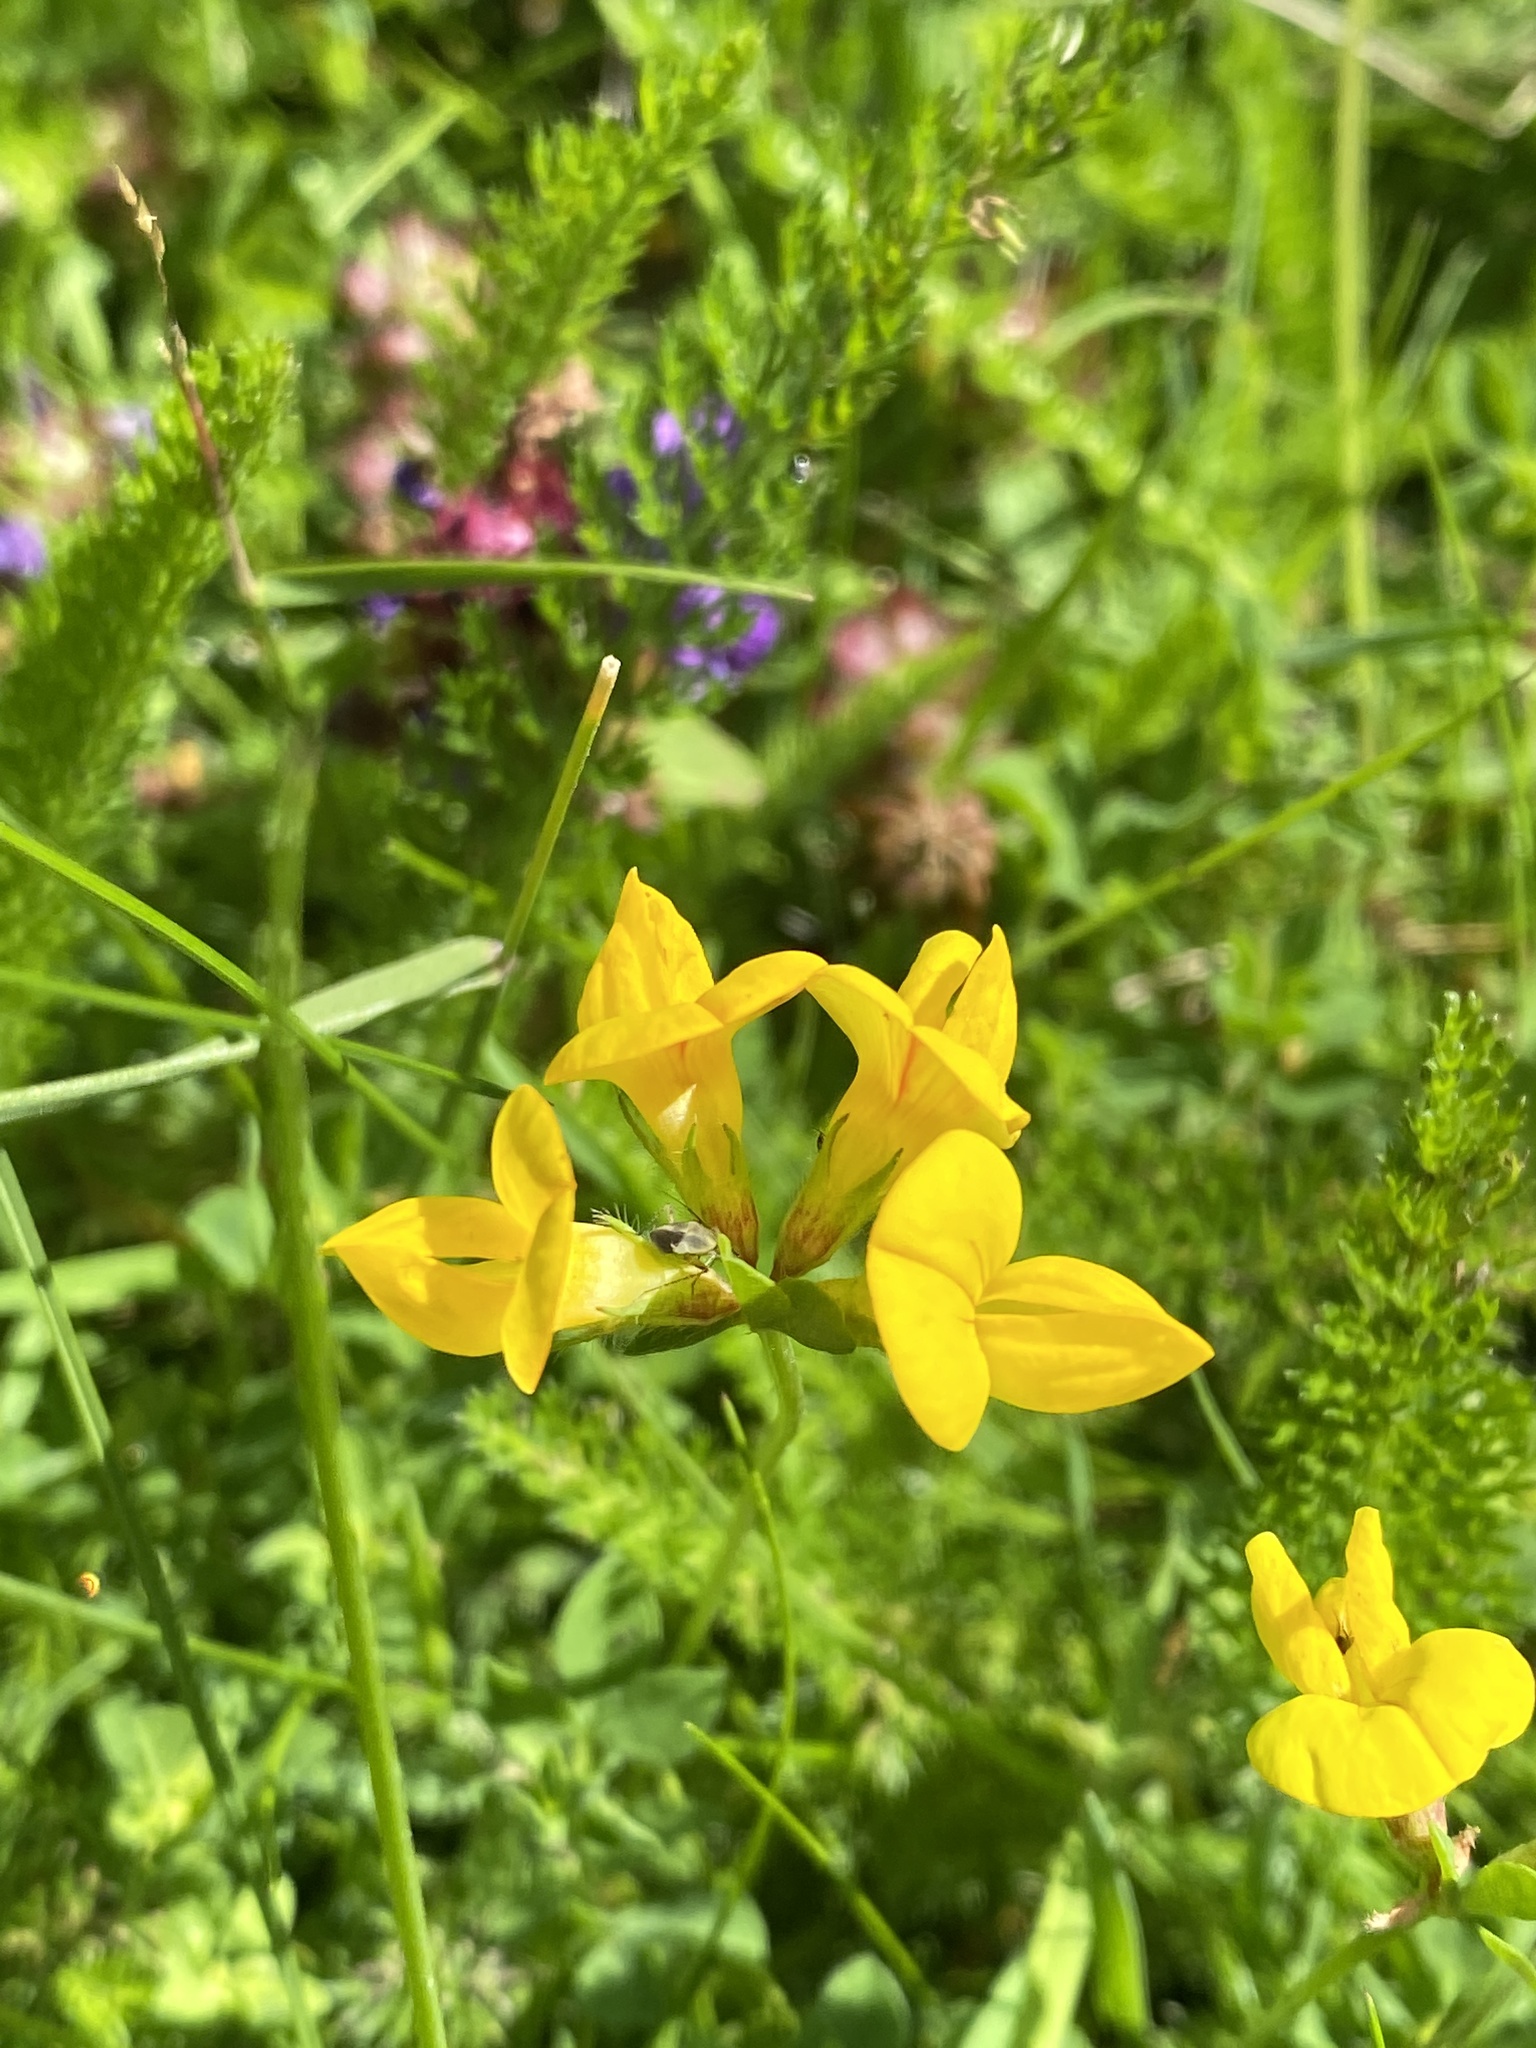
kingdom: Plantae
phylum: Tracheophyta
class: Magnoliopsida
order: Fabales
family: Fabaceae
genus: Lotus
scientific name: Lotus corniculatus
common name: Common bird's-foot-trefoil
